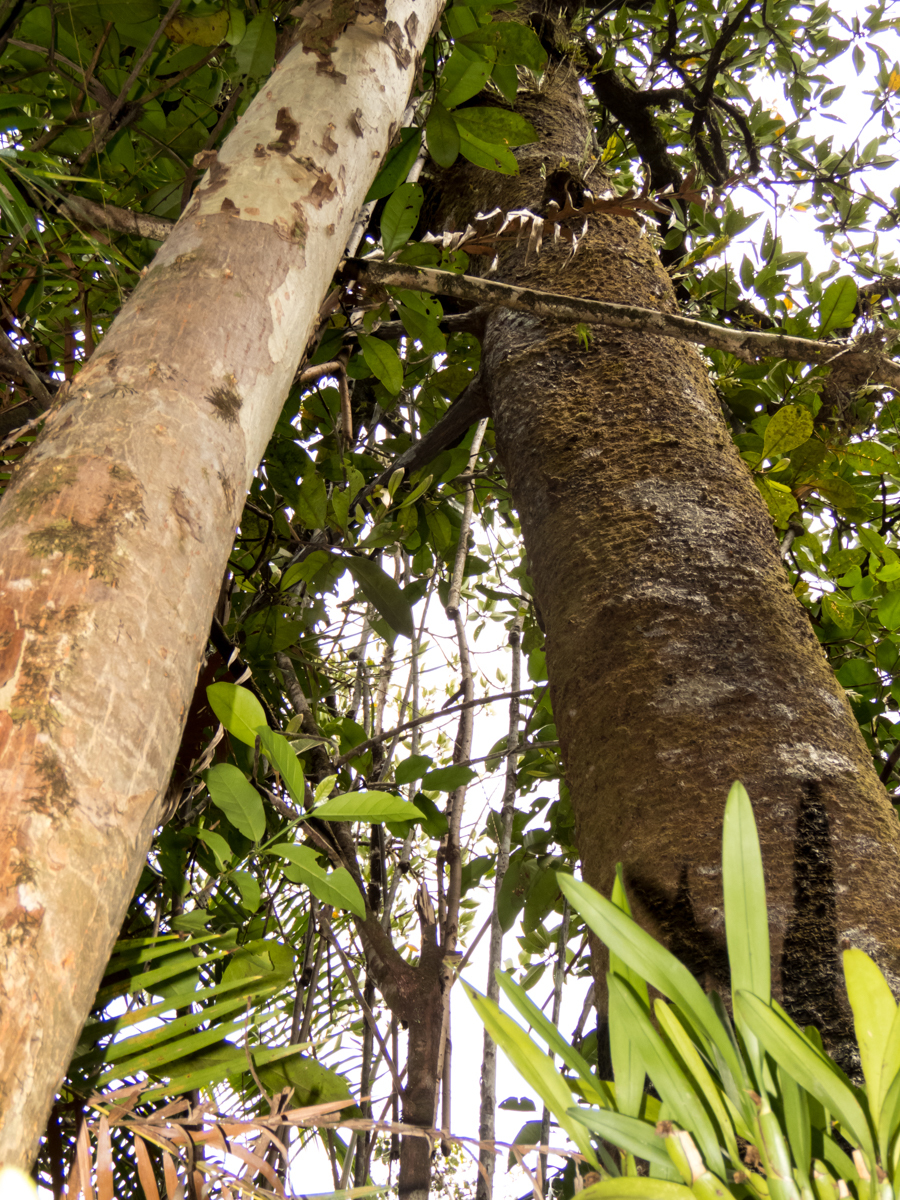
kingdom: Plantae
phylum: Tracheophyta
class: Magnoliopsida
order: Malpighiales
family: Rhizophoraceae
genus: Rhizophora
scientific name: Rhizophora apiculata
